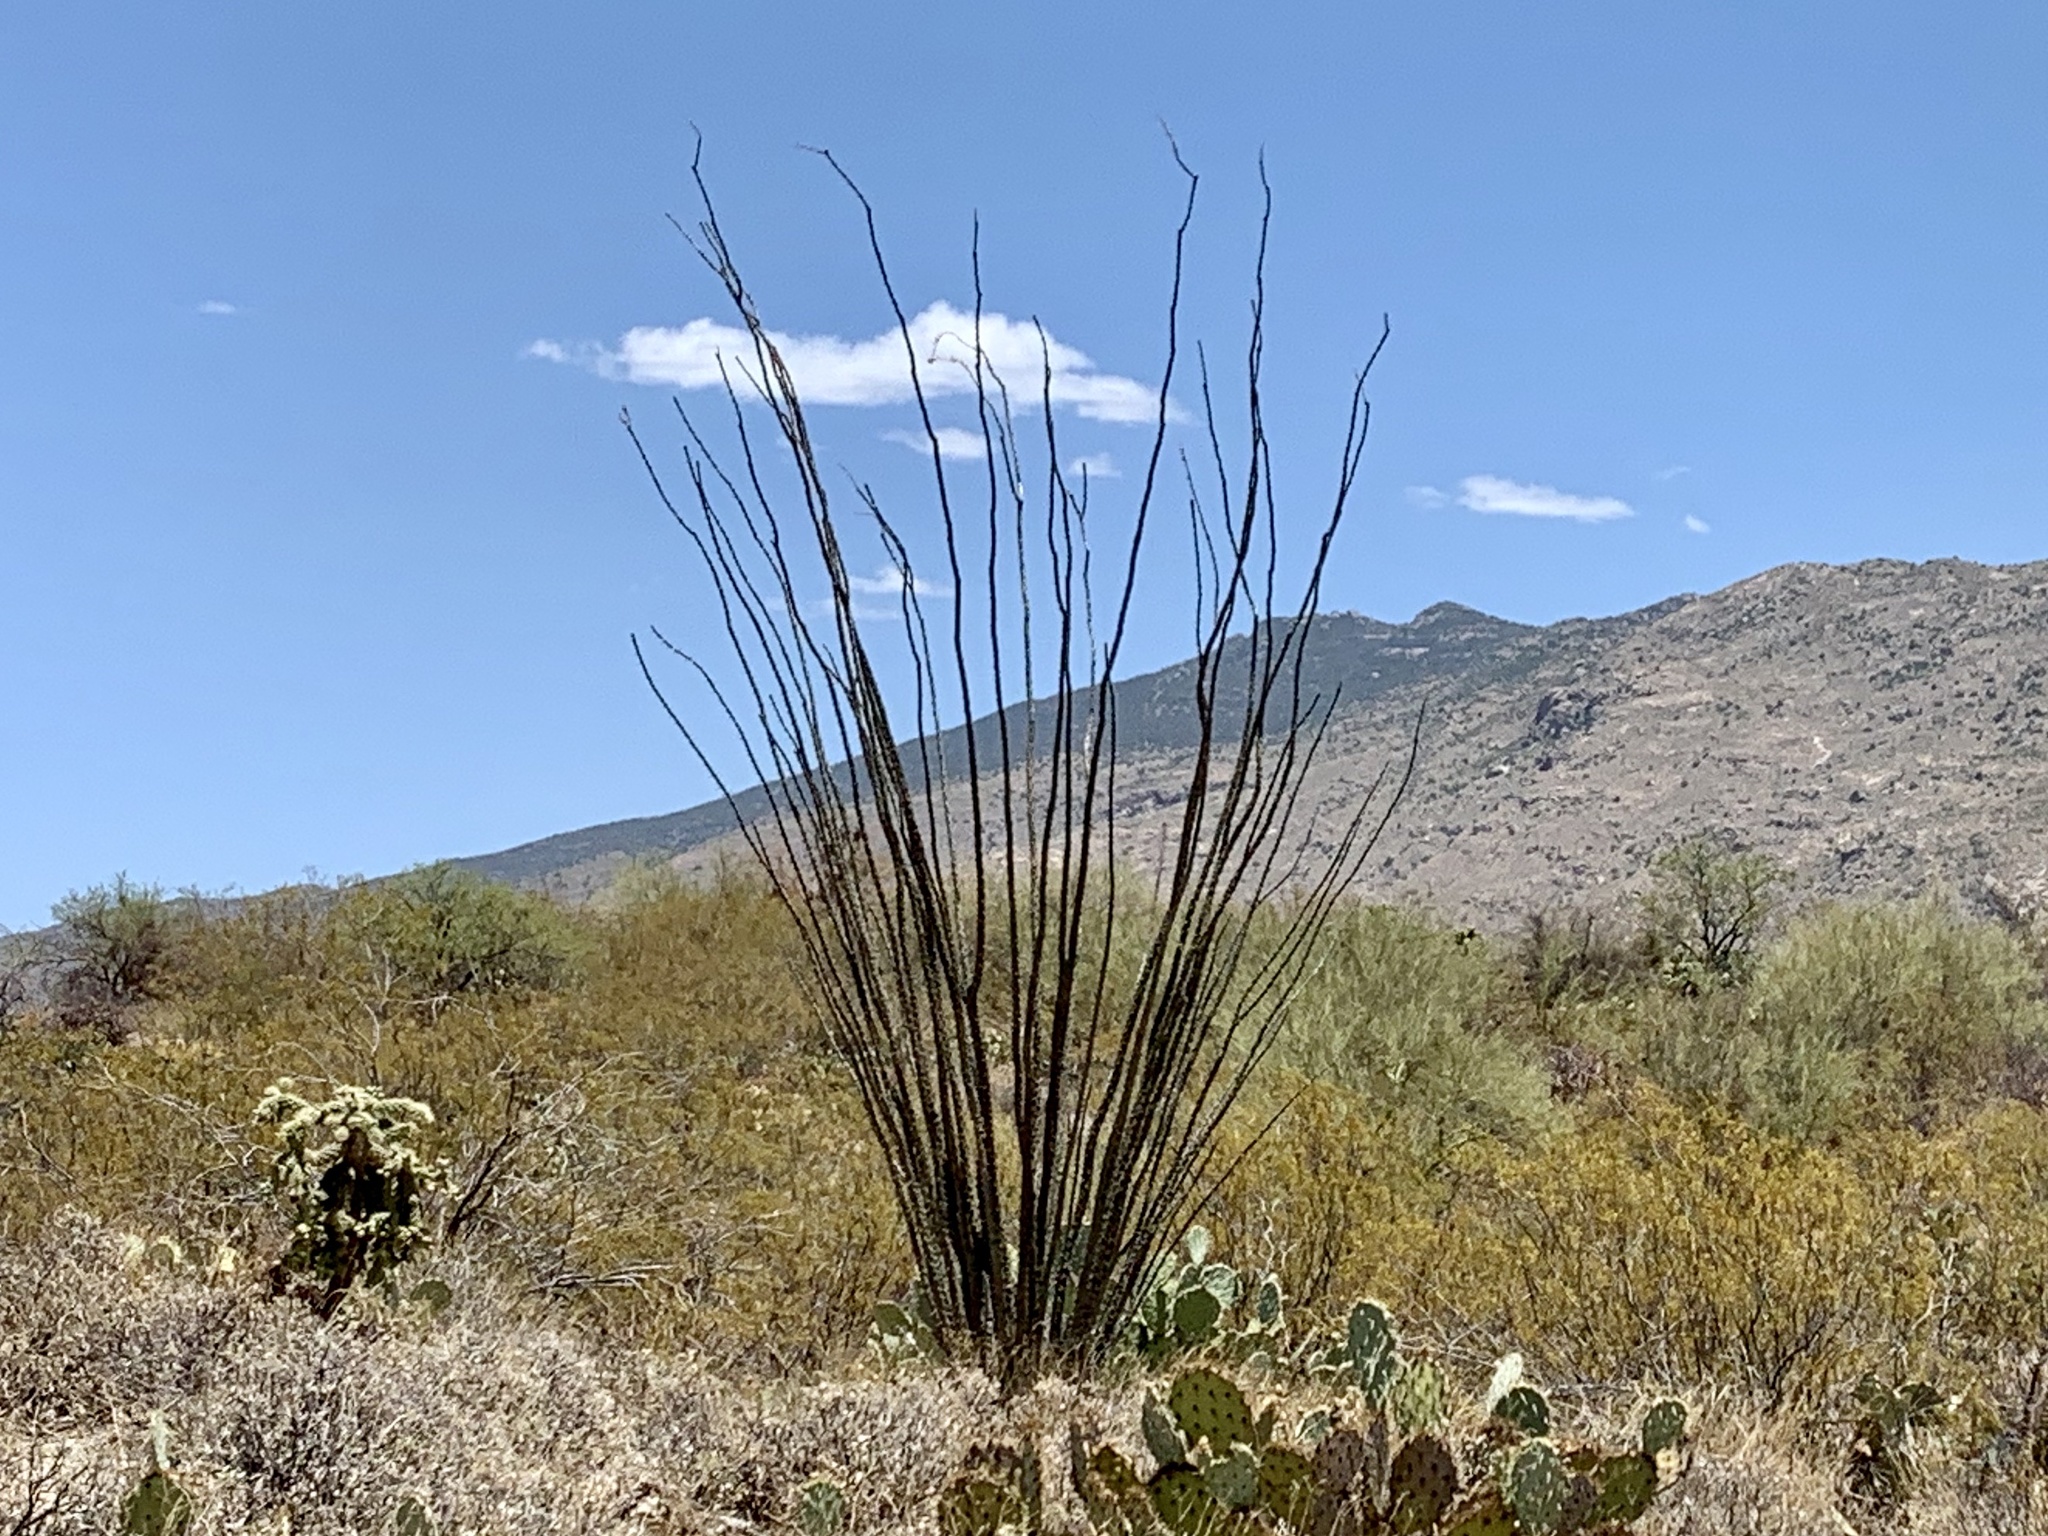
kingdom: Plantae
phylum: Tracheophyta
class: Magnoliopsida
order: Ericales
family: Fouquieriaceae
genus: Fouquieria
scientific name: Fouquieria splendens
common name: Vine-cactus
